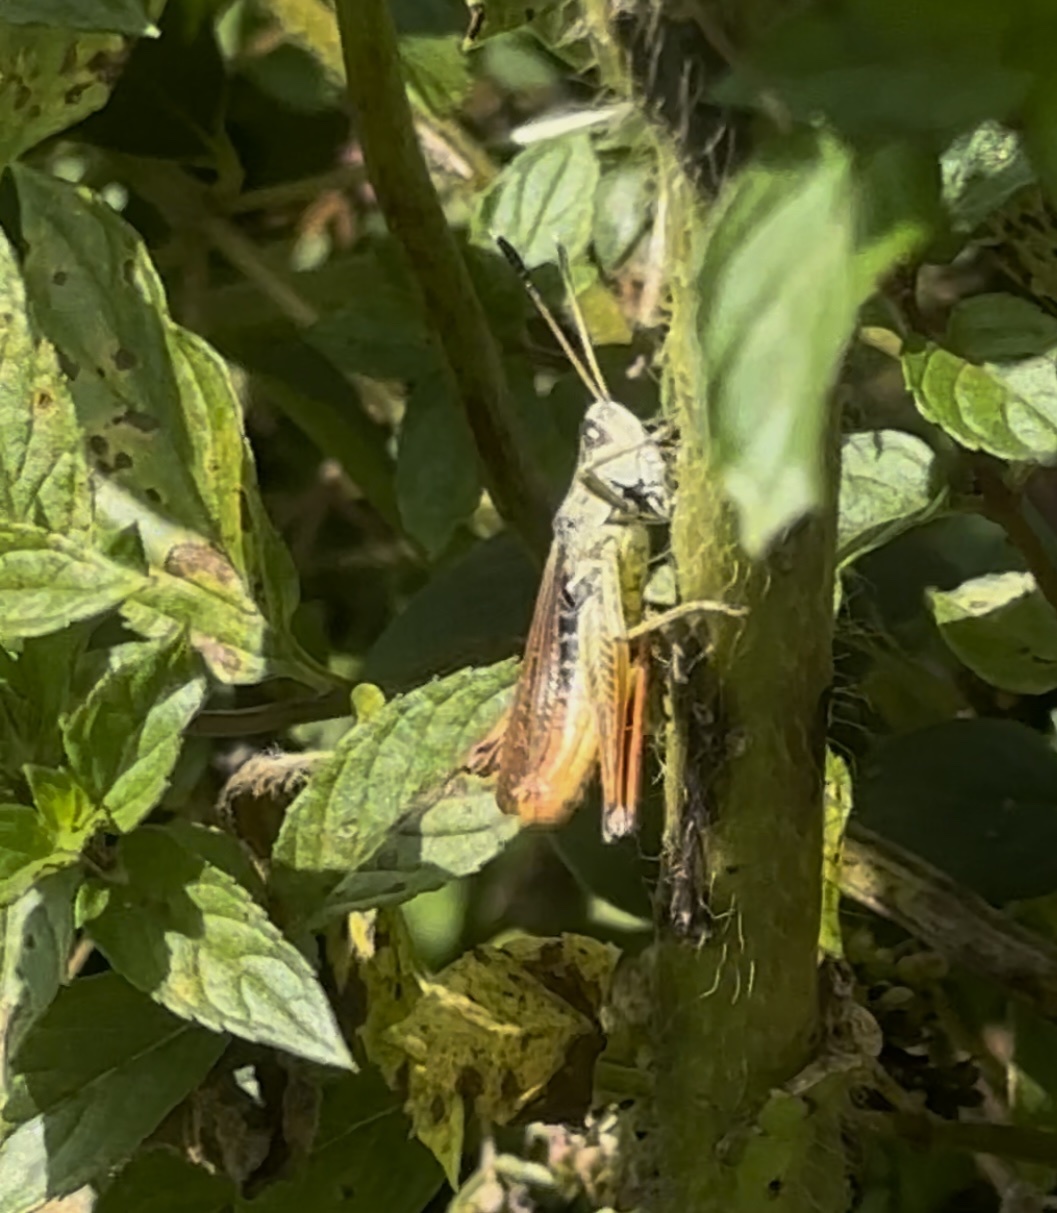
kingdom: Animalia
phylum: Arthropoda
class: Insecta
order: Orthoptera
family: Acrididae
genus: Gomphocerippus
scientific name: Gomphocerippus rufus
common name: Rufous grasshopper
